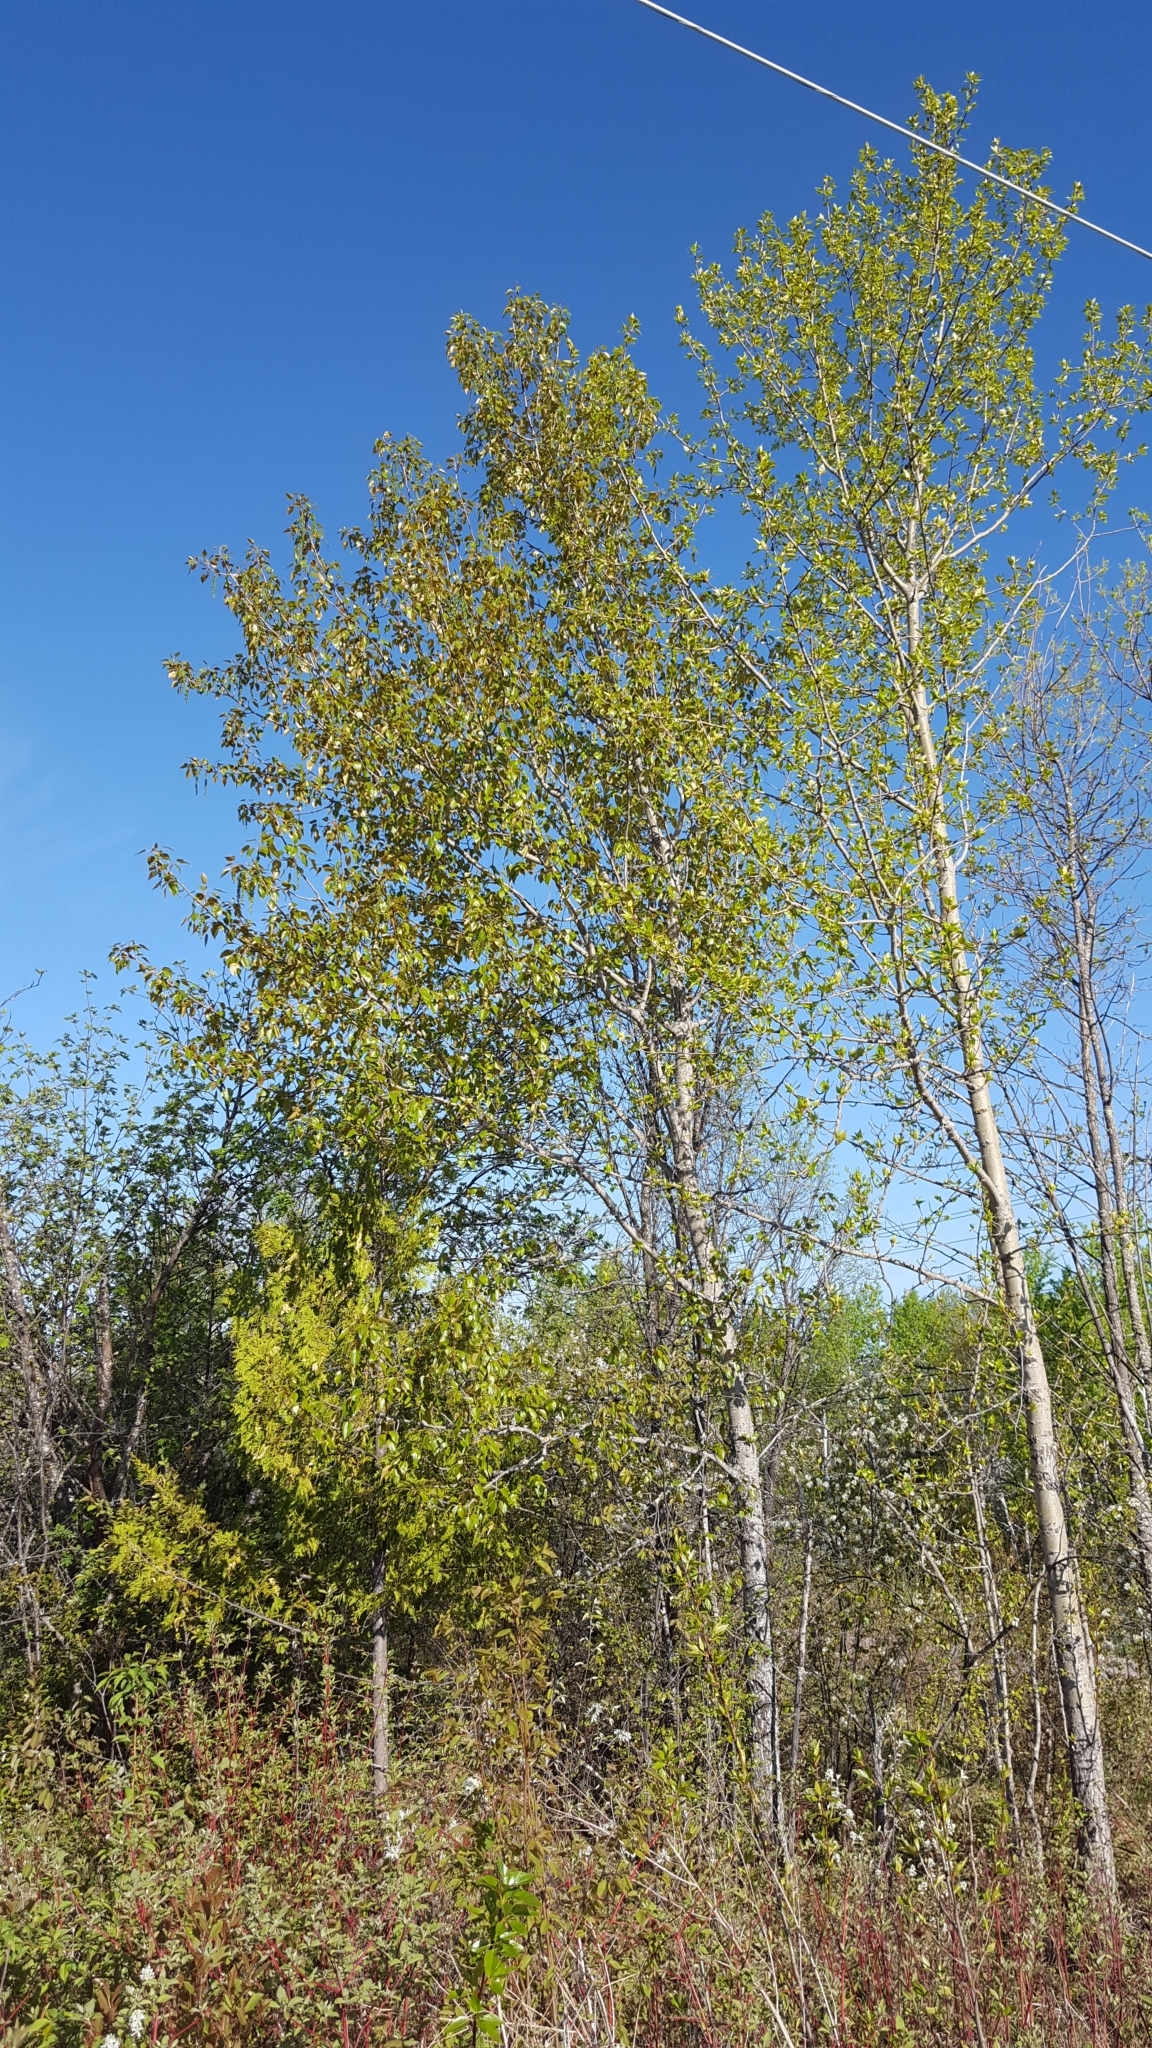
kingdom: Plantae
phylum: Tracheophyta
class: Magnoliopsida
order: Malpighiales
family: Salicaceae
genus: Populus
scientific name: Populus balsamifera
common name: Balsam poplar
